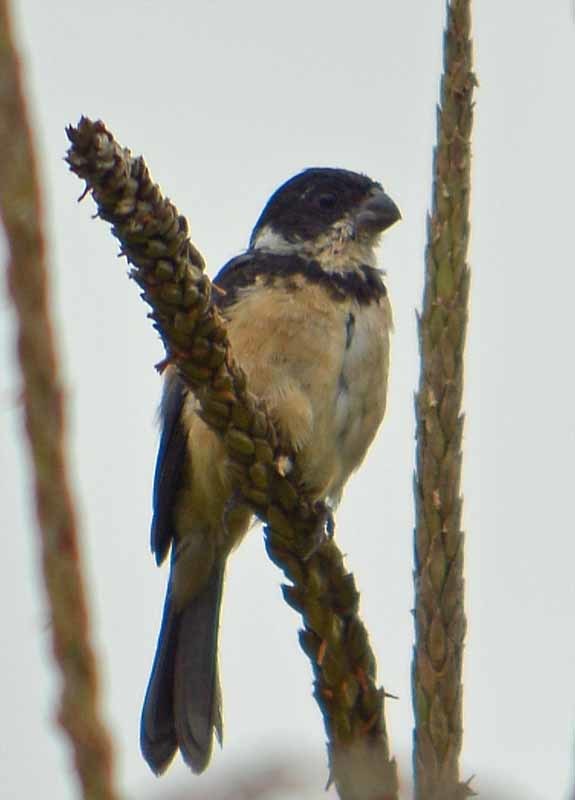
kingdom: Animalia
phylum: Chordata
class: Aves
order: Passeriformes
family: Thraupidae
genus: Sporophila
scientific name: Sporophila torqueola
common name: White-collared seedeater
